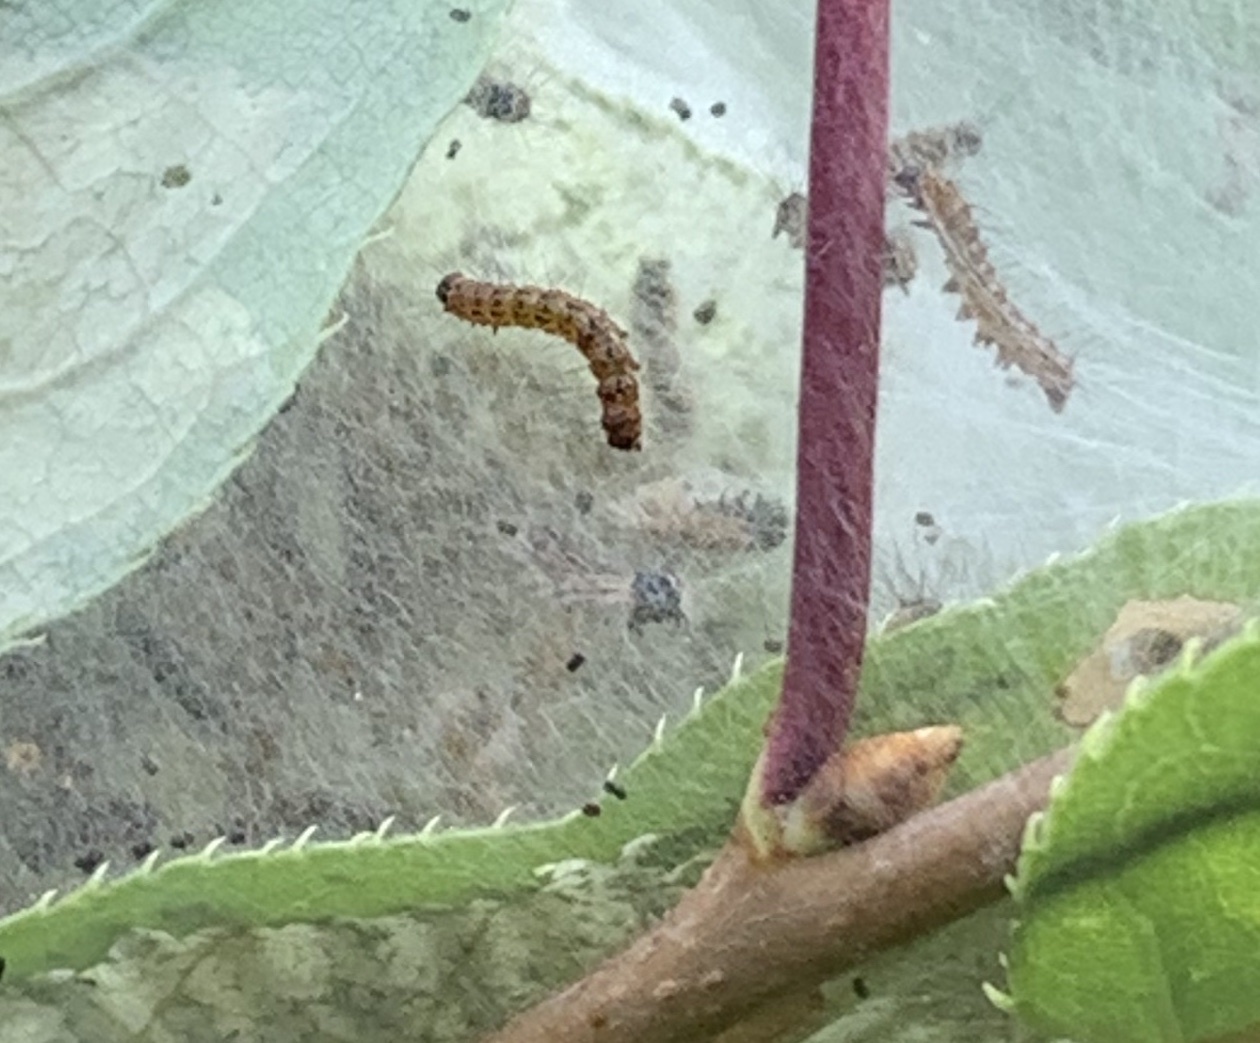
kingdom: Animalia
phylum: Arthropoda
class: Insecta
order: Lepidoptera
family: Erebidae
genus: Hyphantria
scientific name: Hyphantria cunea
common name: American white moth
